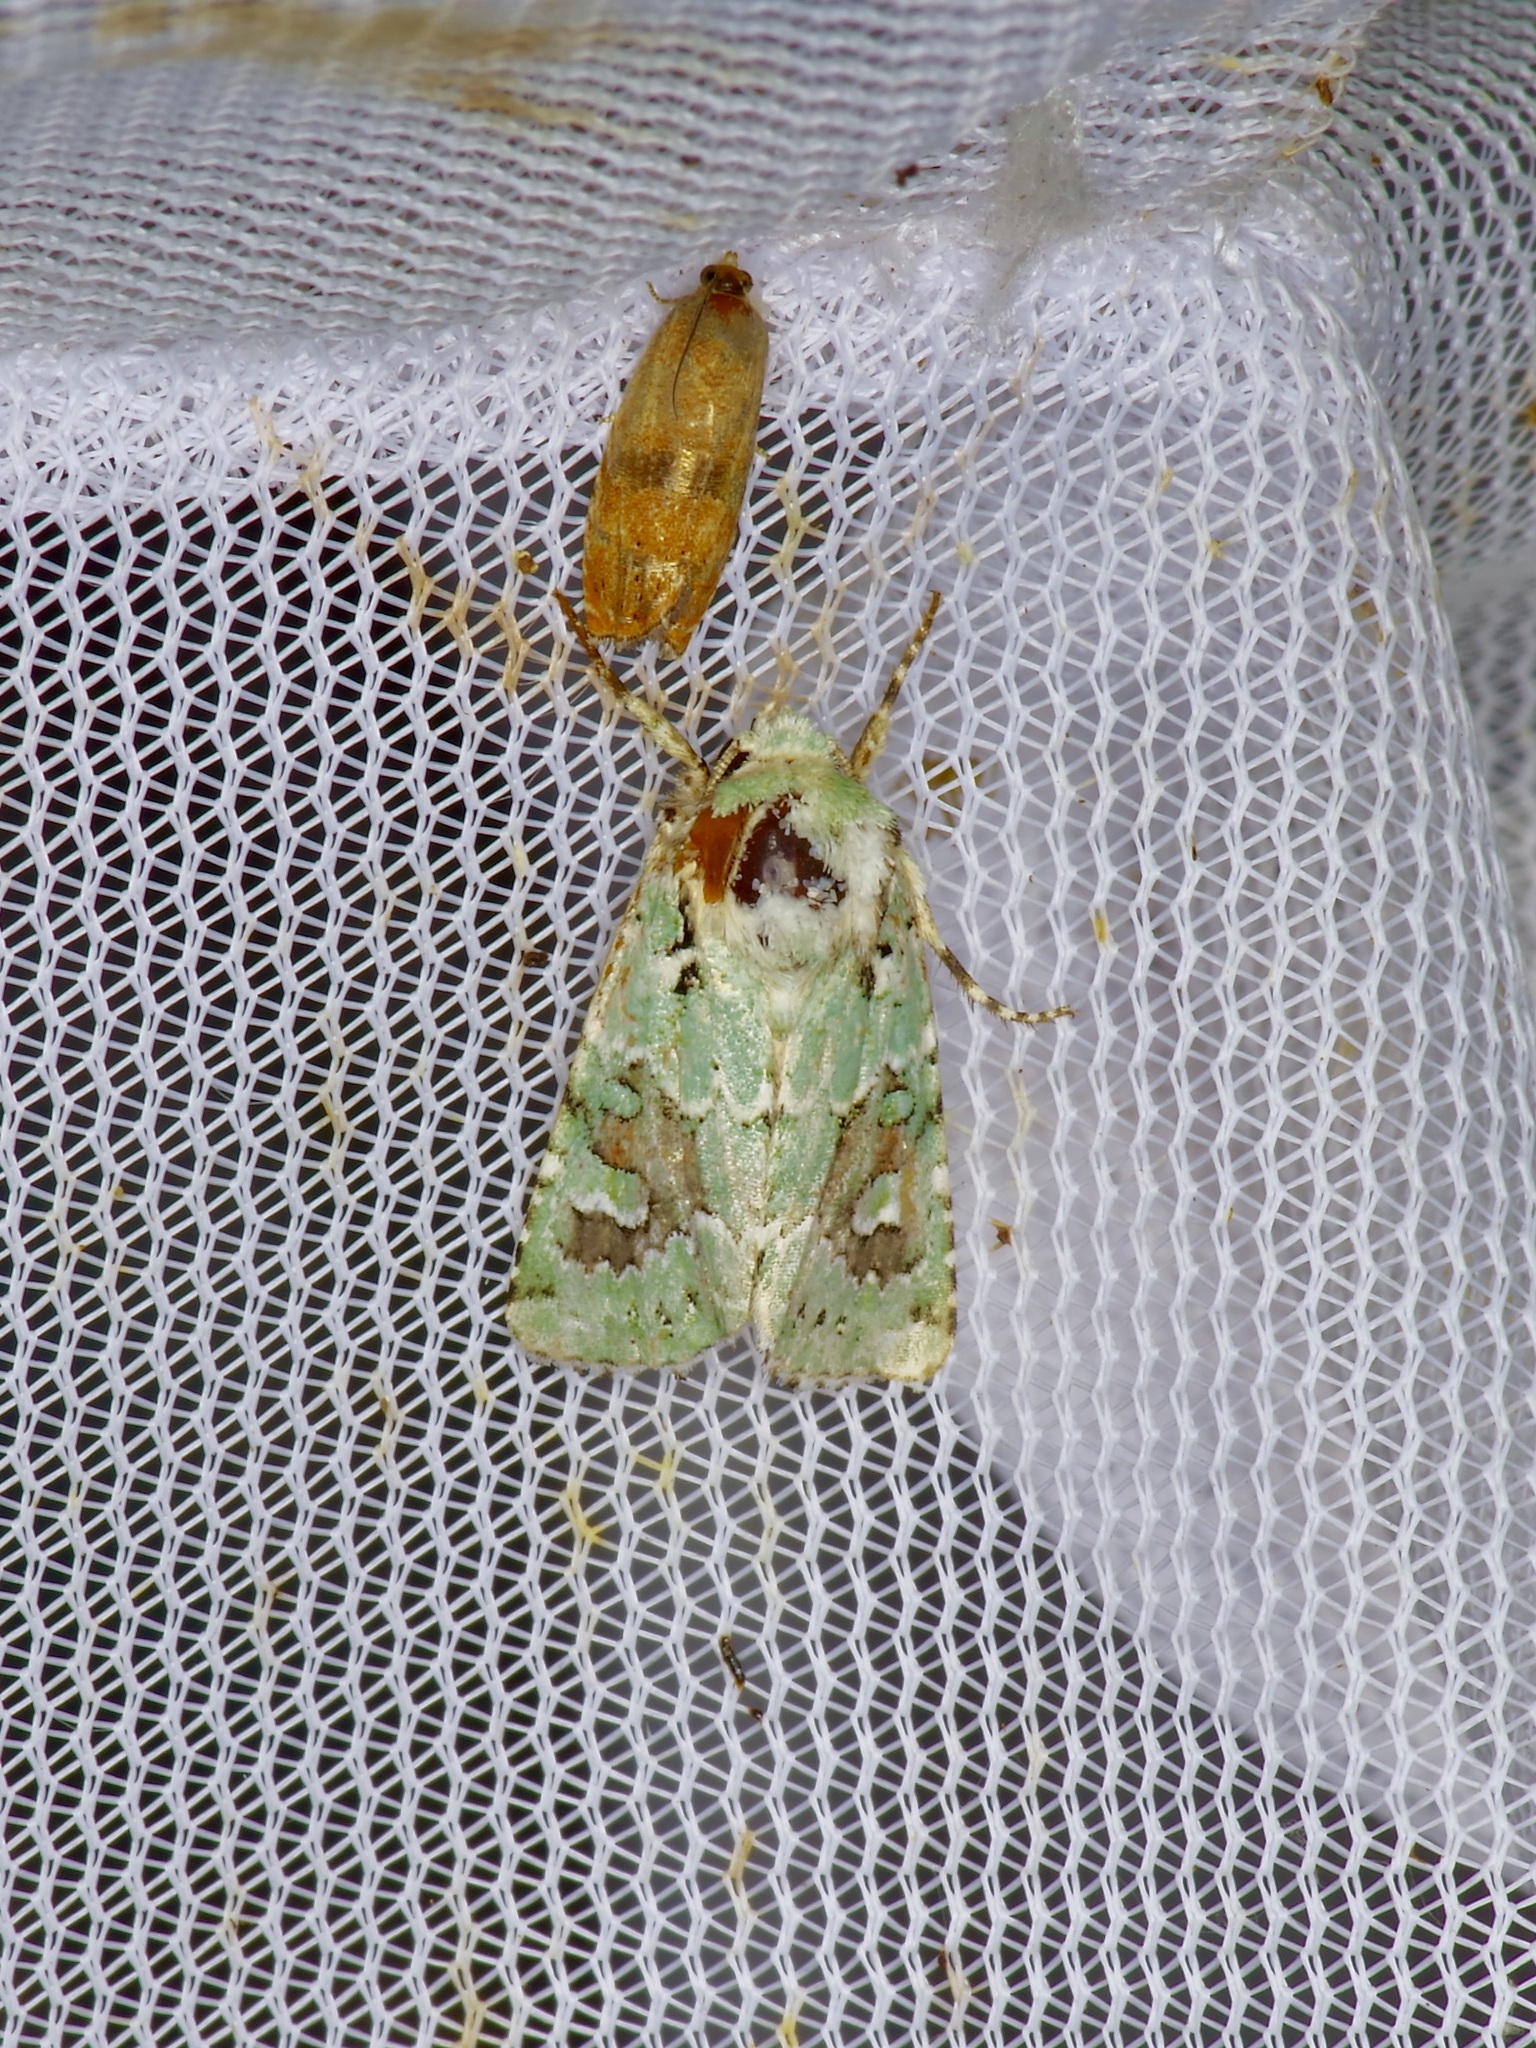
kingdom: Animalia
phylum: Arthropoda
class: Insecta
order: Lepidoptera
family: Noctuidae
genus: Lacinipolia
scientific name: Lacinipolia laudabilis
